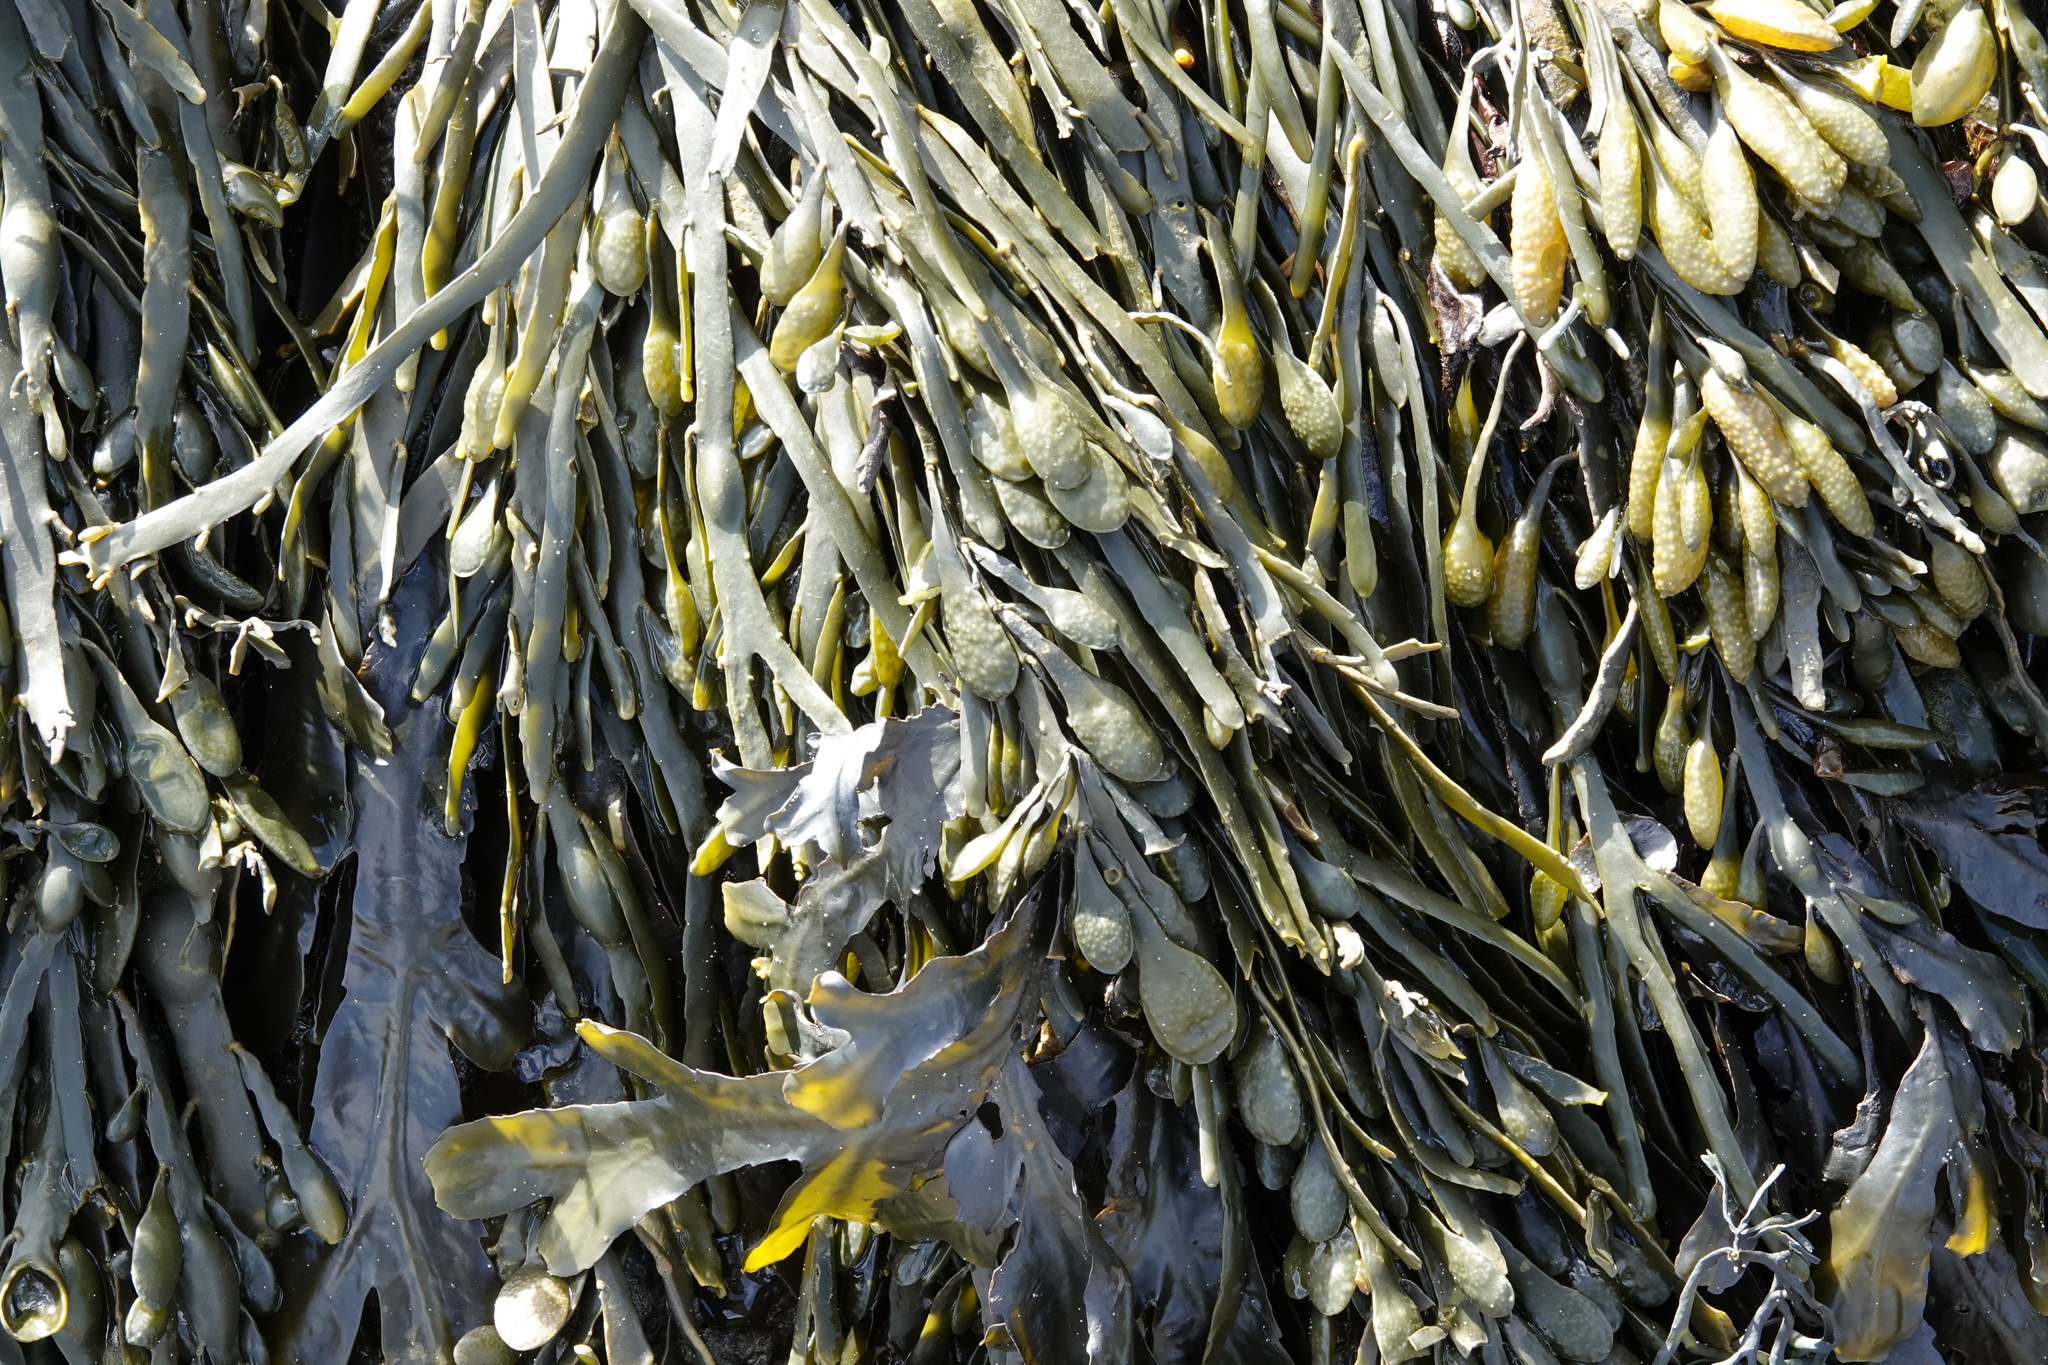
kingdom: Chromista
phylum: Ochrophyta
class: Phaeophyceae
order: Fucales
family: Fucaceae
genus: Ascophyllum
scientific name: Ascophyllum nodosum
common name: Knotted wrack
